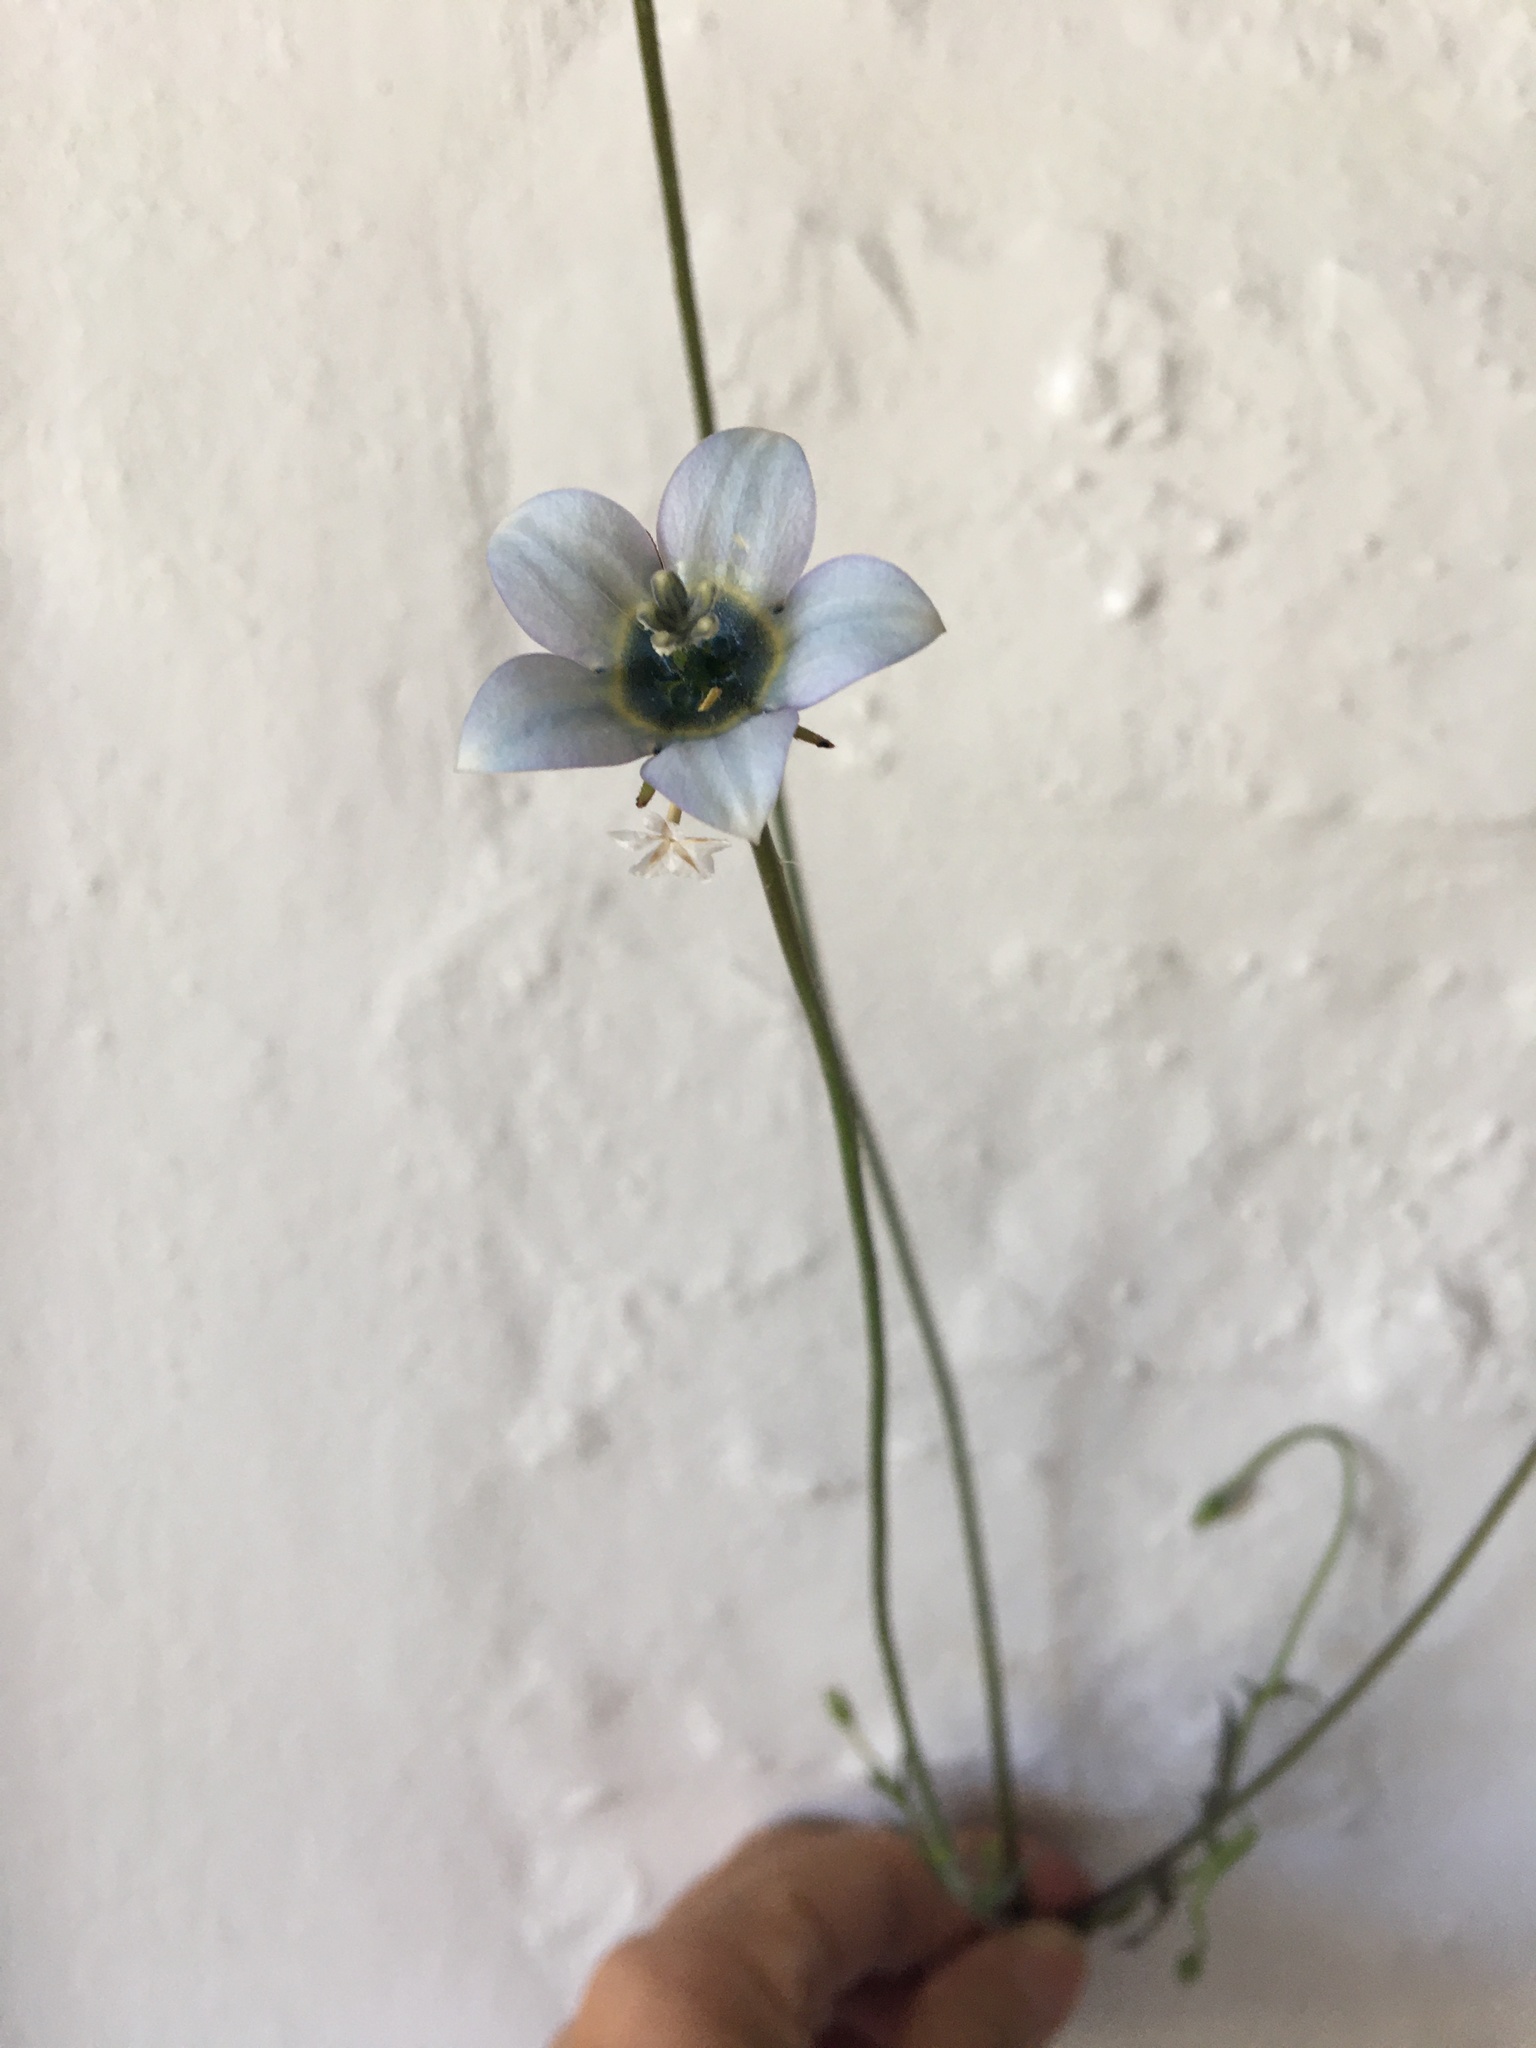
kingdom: Plantae
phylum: Tracheophyta
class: Magnoliopsida
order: Asterales
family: Campanulaceae
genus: Wahlenbergia
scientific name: Wahlenbergia capensis
